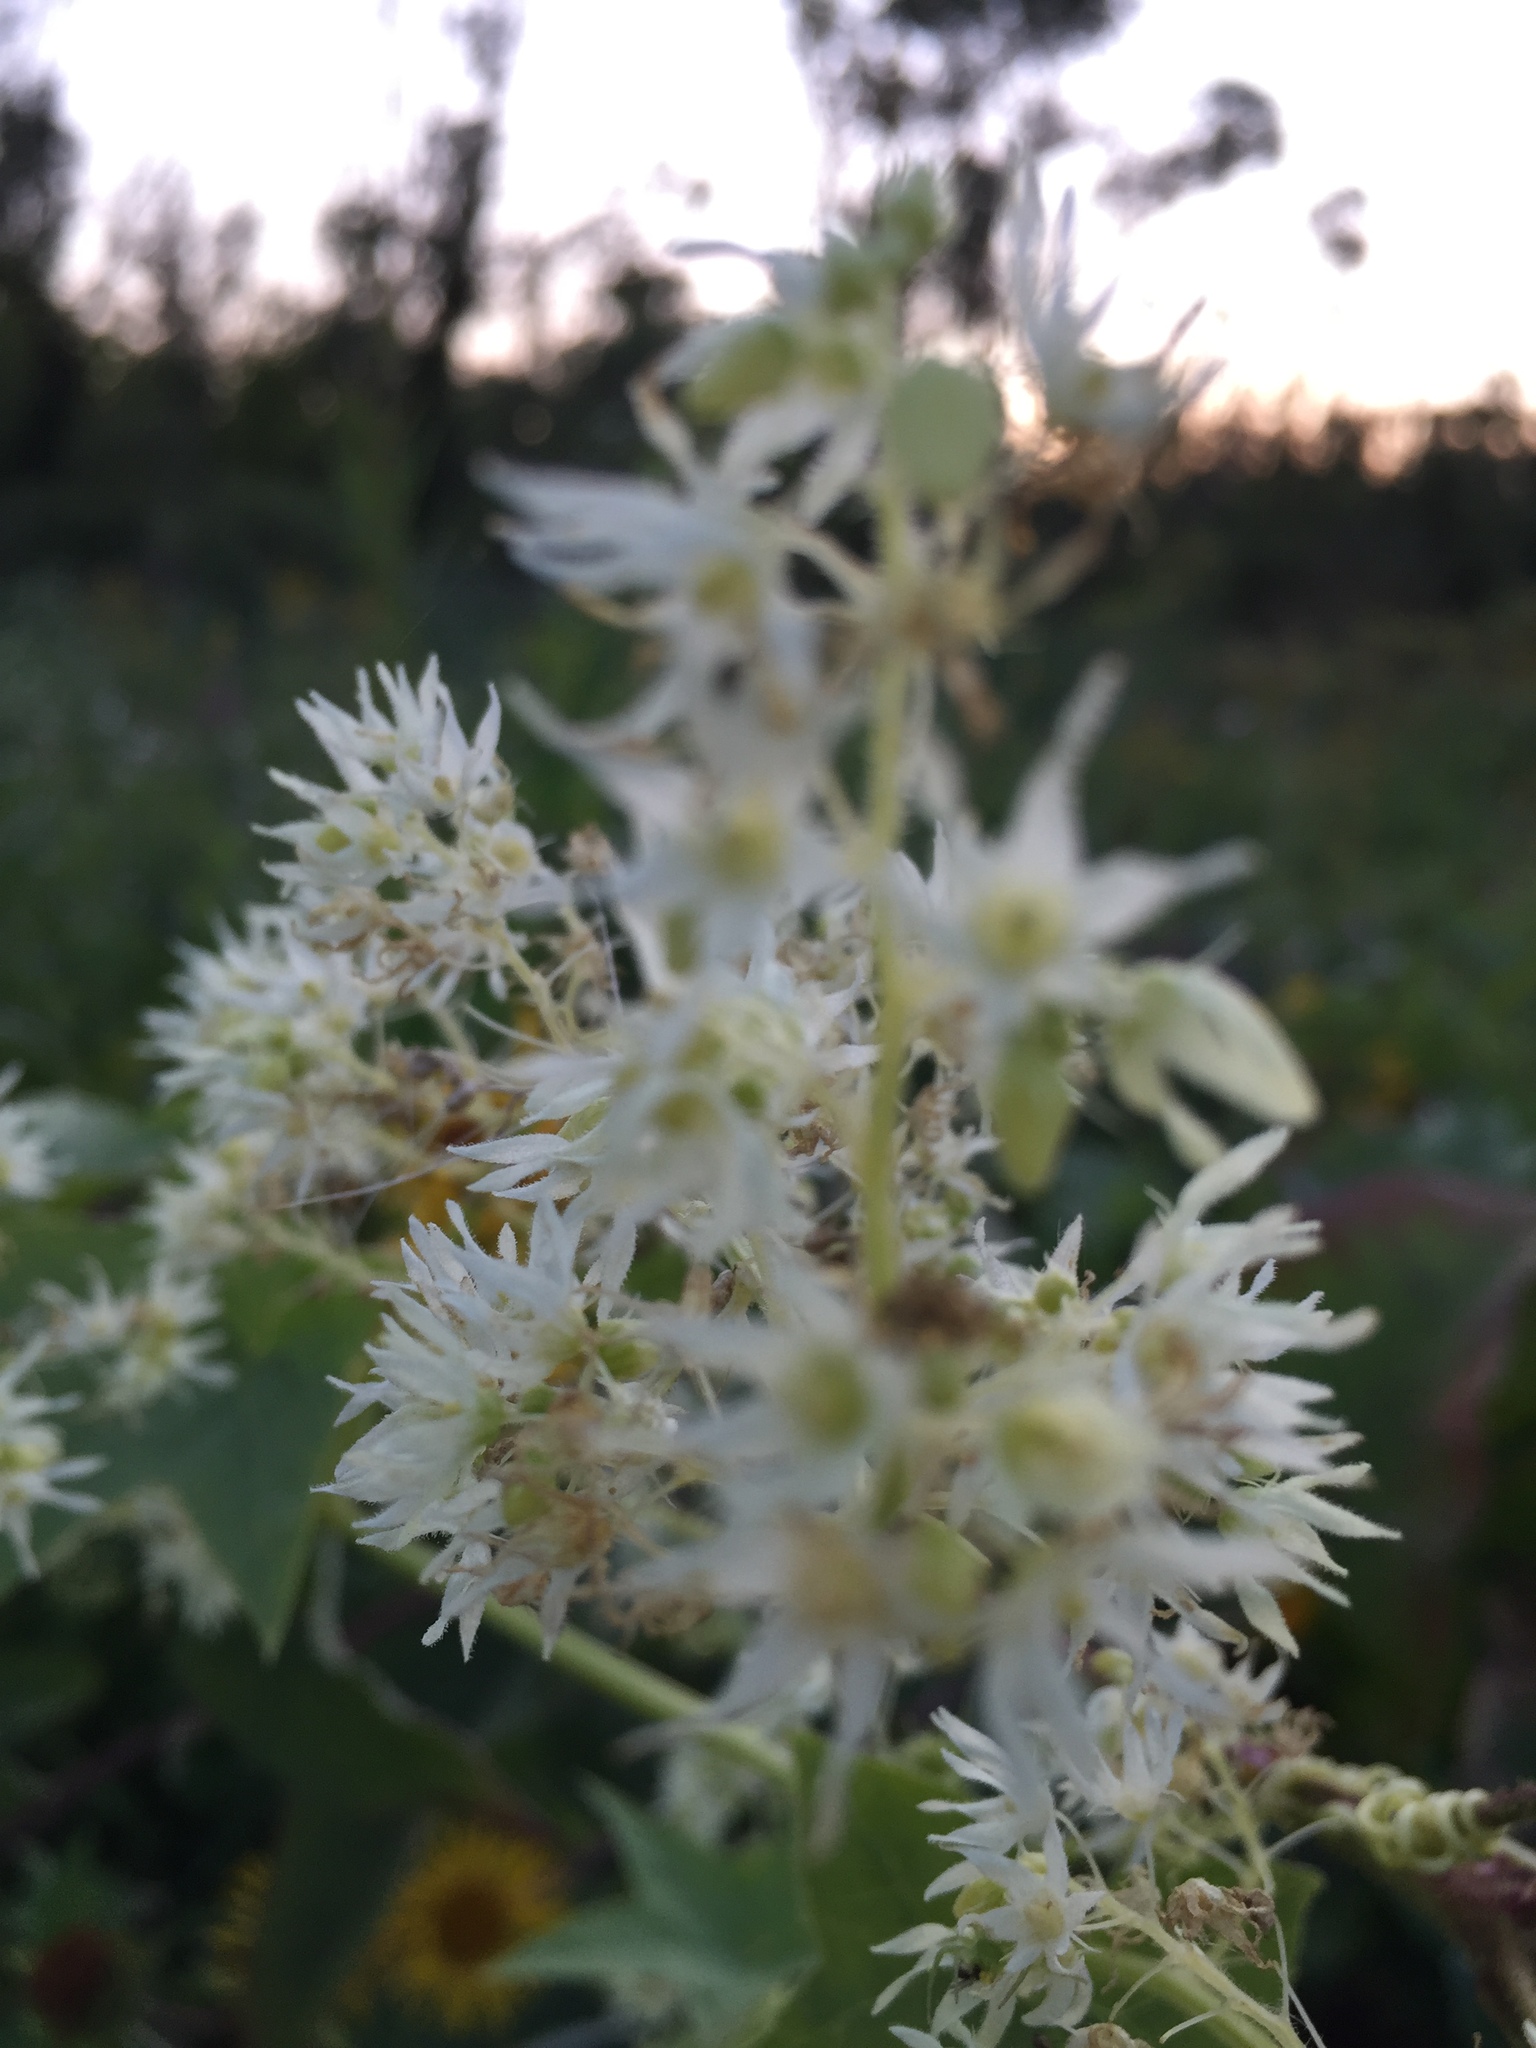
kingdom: Plantae
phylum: Tracheophyta
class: Magnoliopsida
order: Cucurbitales
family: Cucurbitaceae
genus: Echinocystis
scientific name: Echinocystis lobata
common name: Wild cucumber
